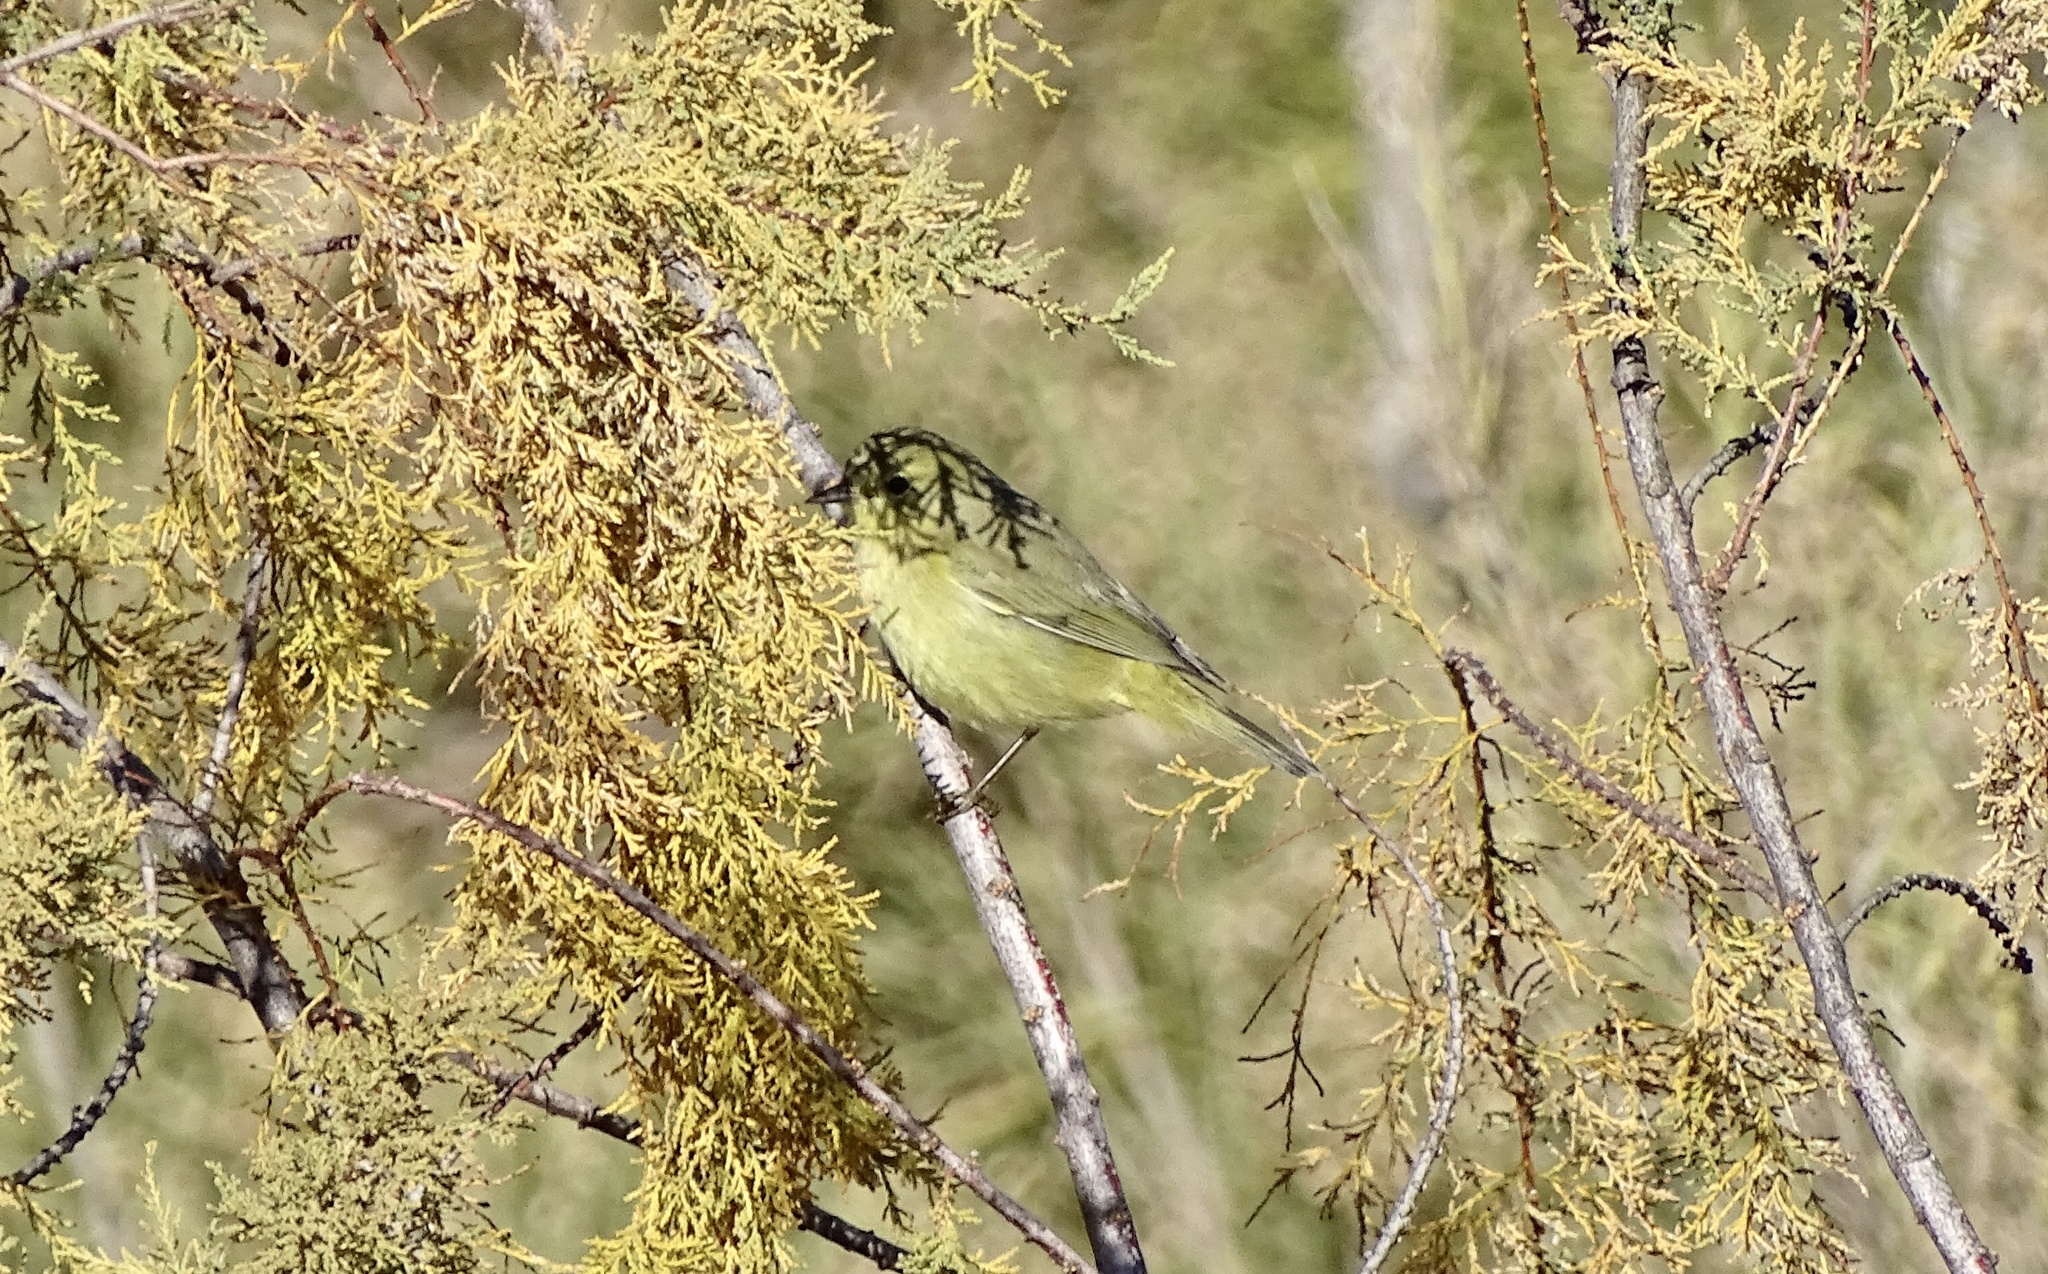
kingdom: Animalia
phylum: Chordata
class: Aves
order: Passeriformes
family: Parulidae
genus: Leiothlypis
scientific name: Leiothlypis celata
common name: Orange-crowned warbler
